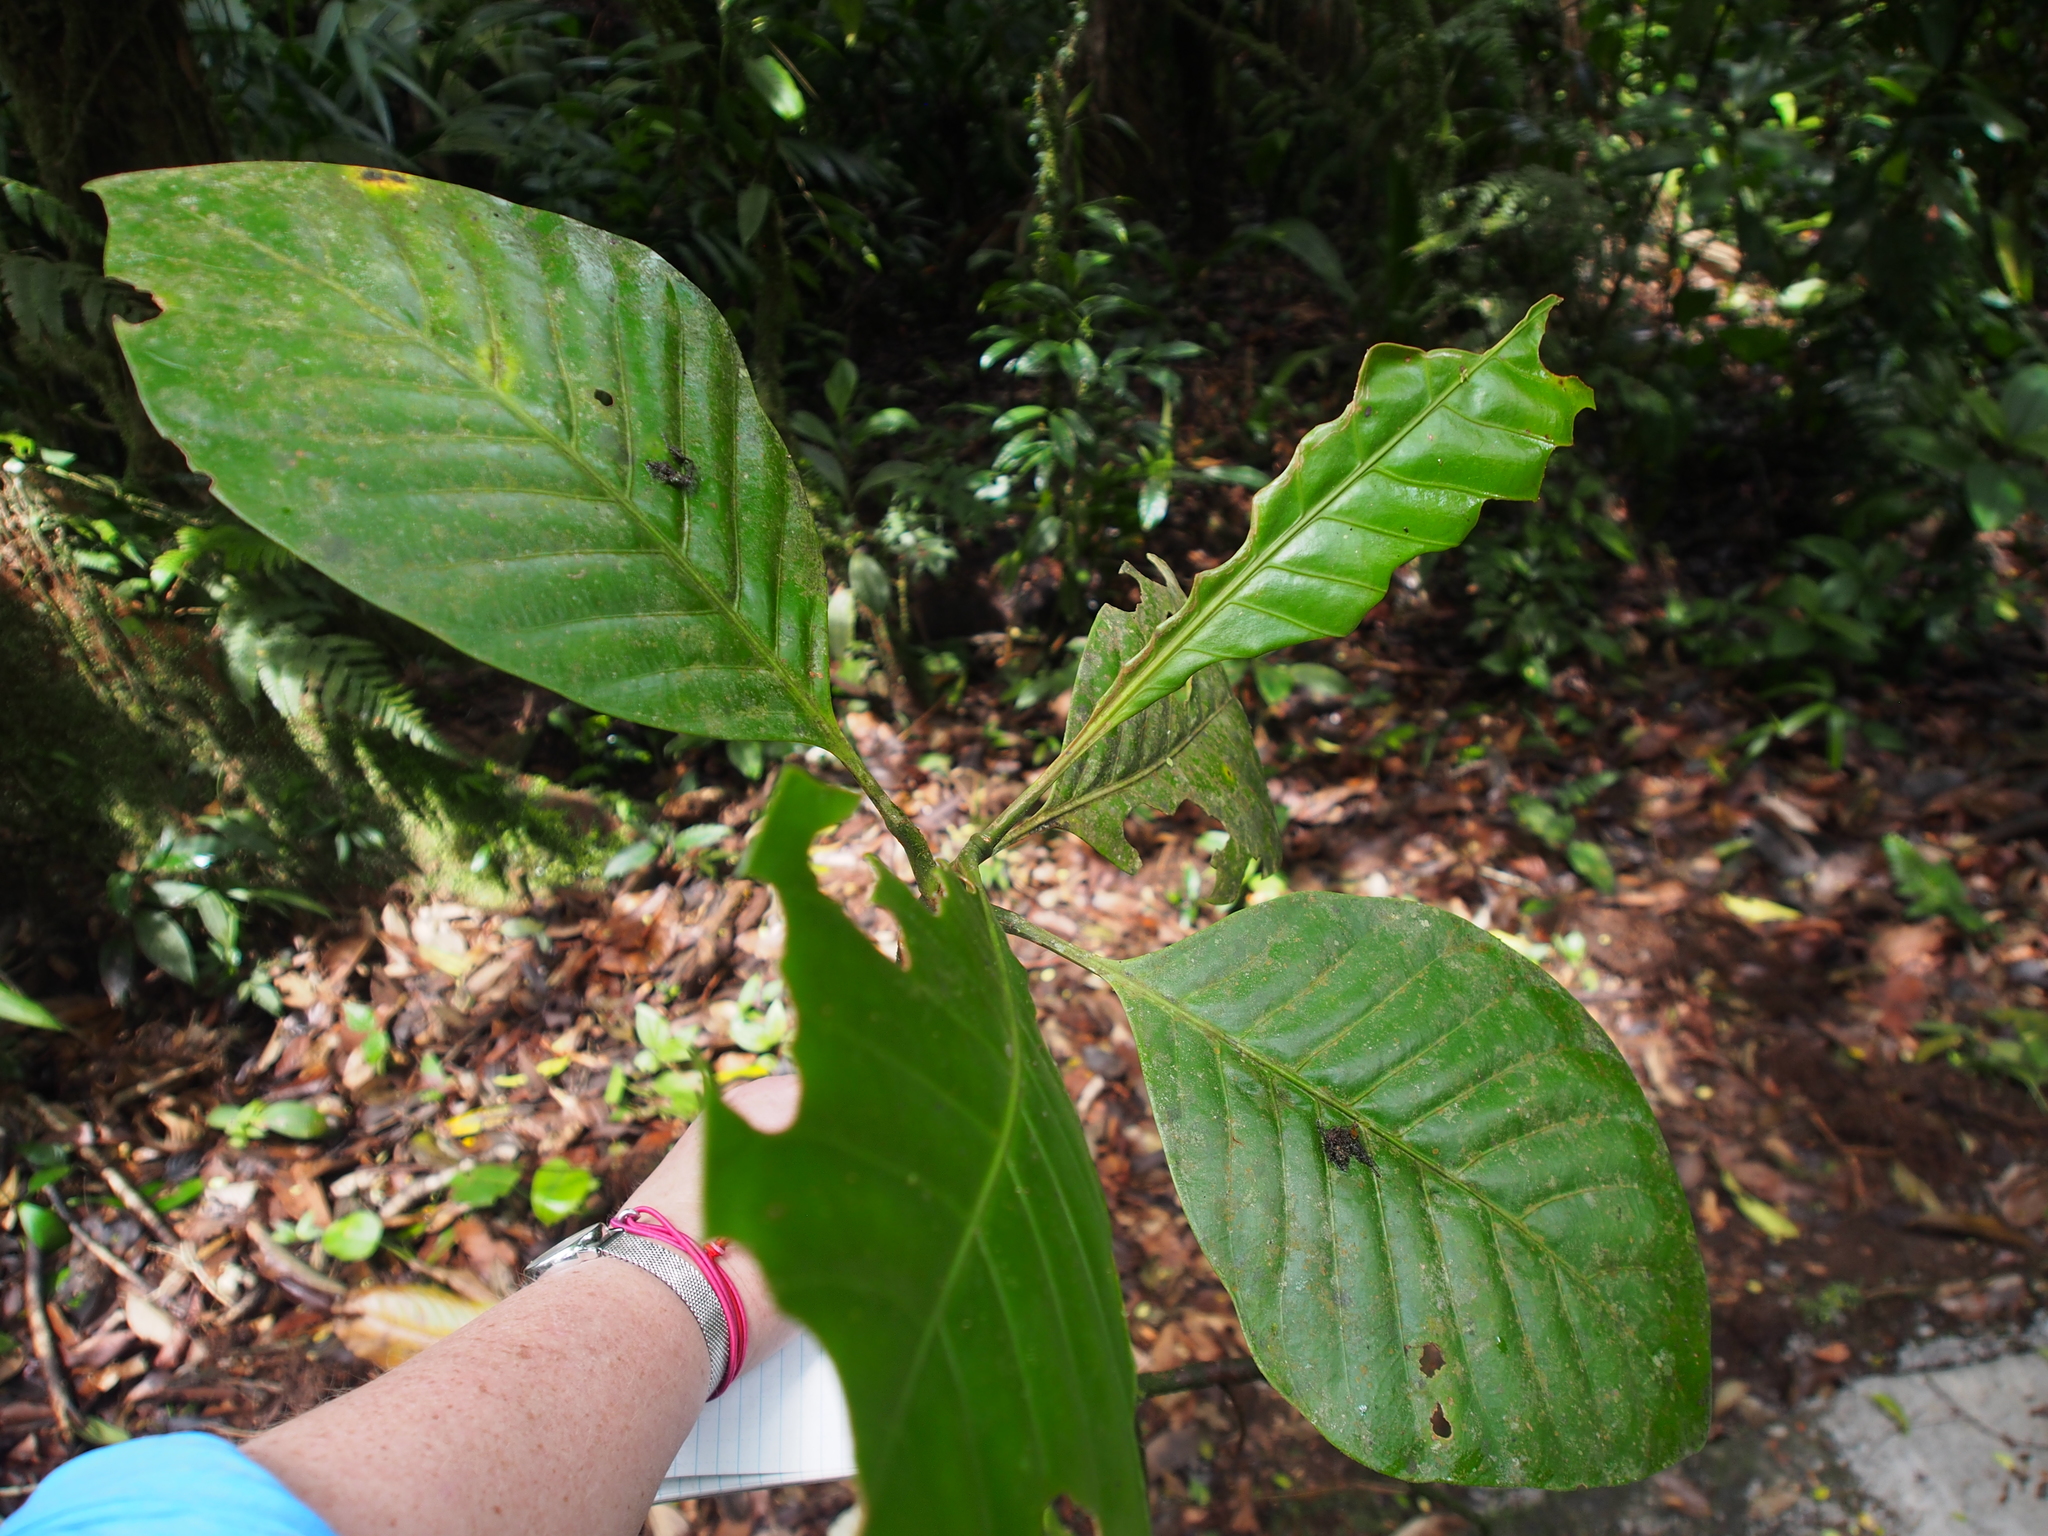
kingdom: Plantae
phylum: Tracheophyta
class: Magnoliopsida
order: Gentianales
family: Rubiaceae
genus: Palicourea
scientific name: Palicourea suerrensis
